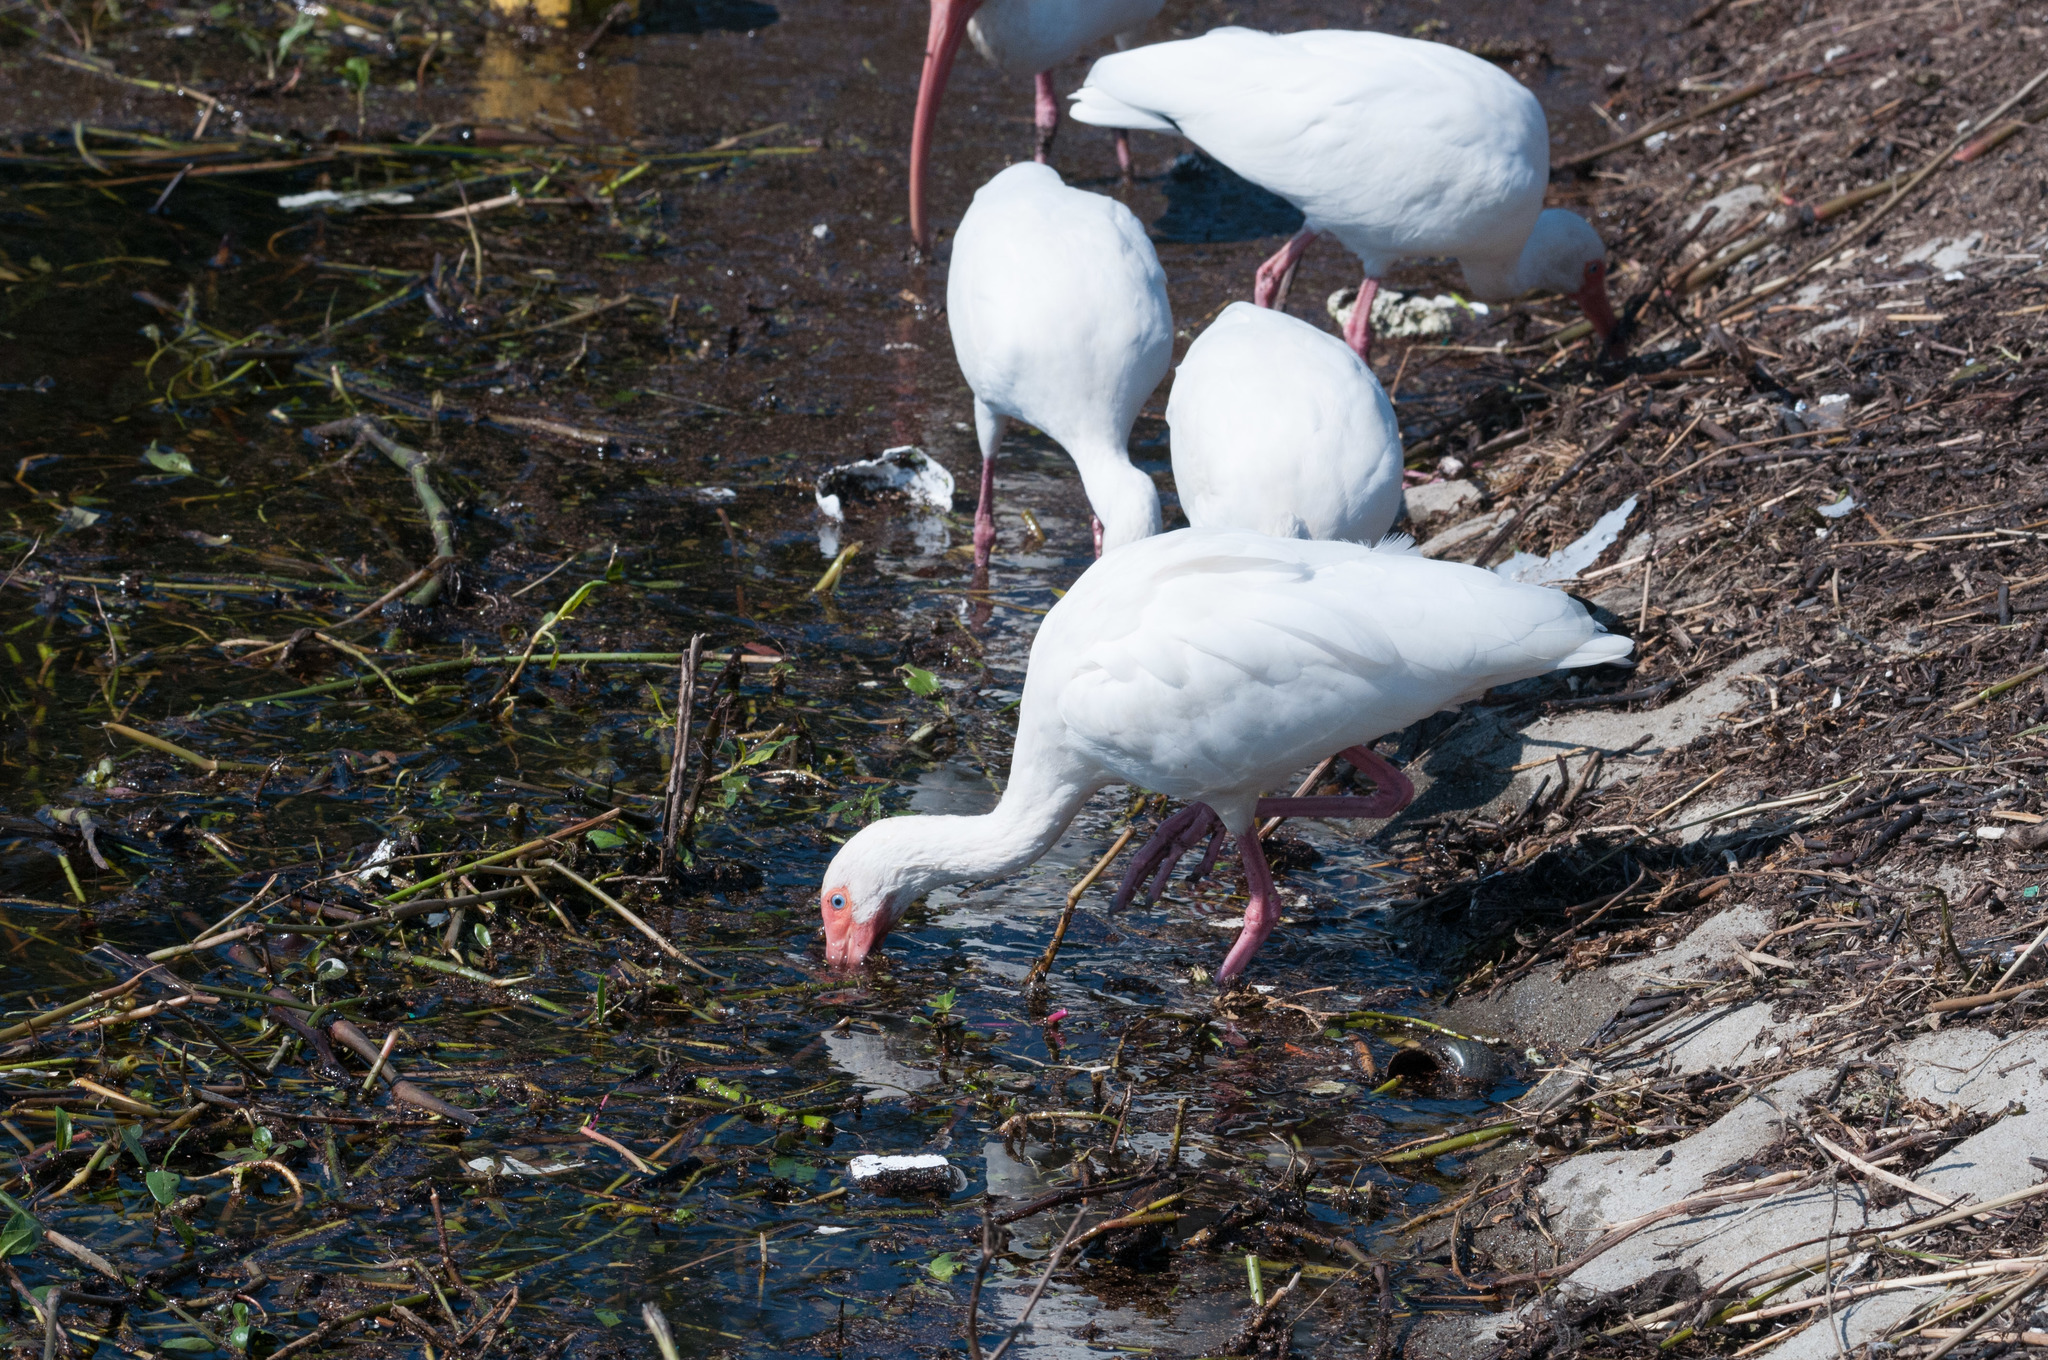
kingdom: Animalia
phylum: Chordata
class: Aves
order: Pelecaniformes
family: Threskiornithidae
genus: Eudocimus
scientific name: Eudocimus albus
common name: White ibis
